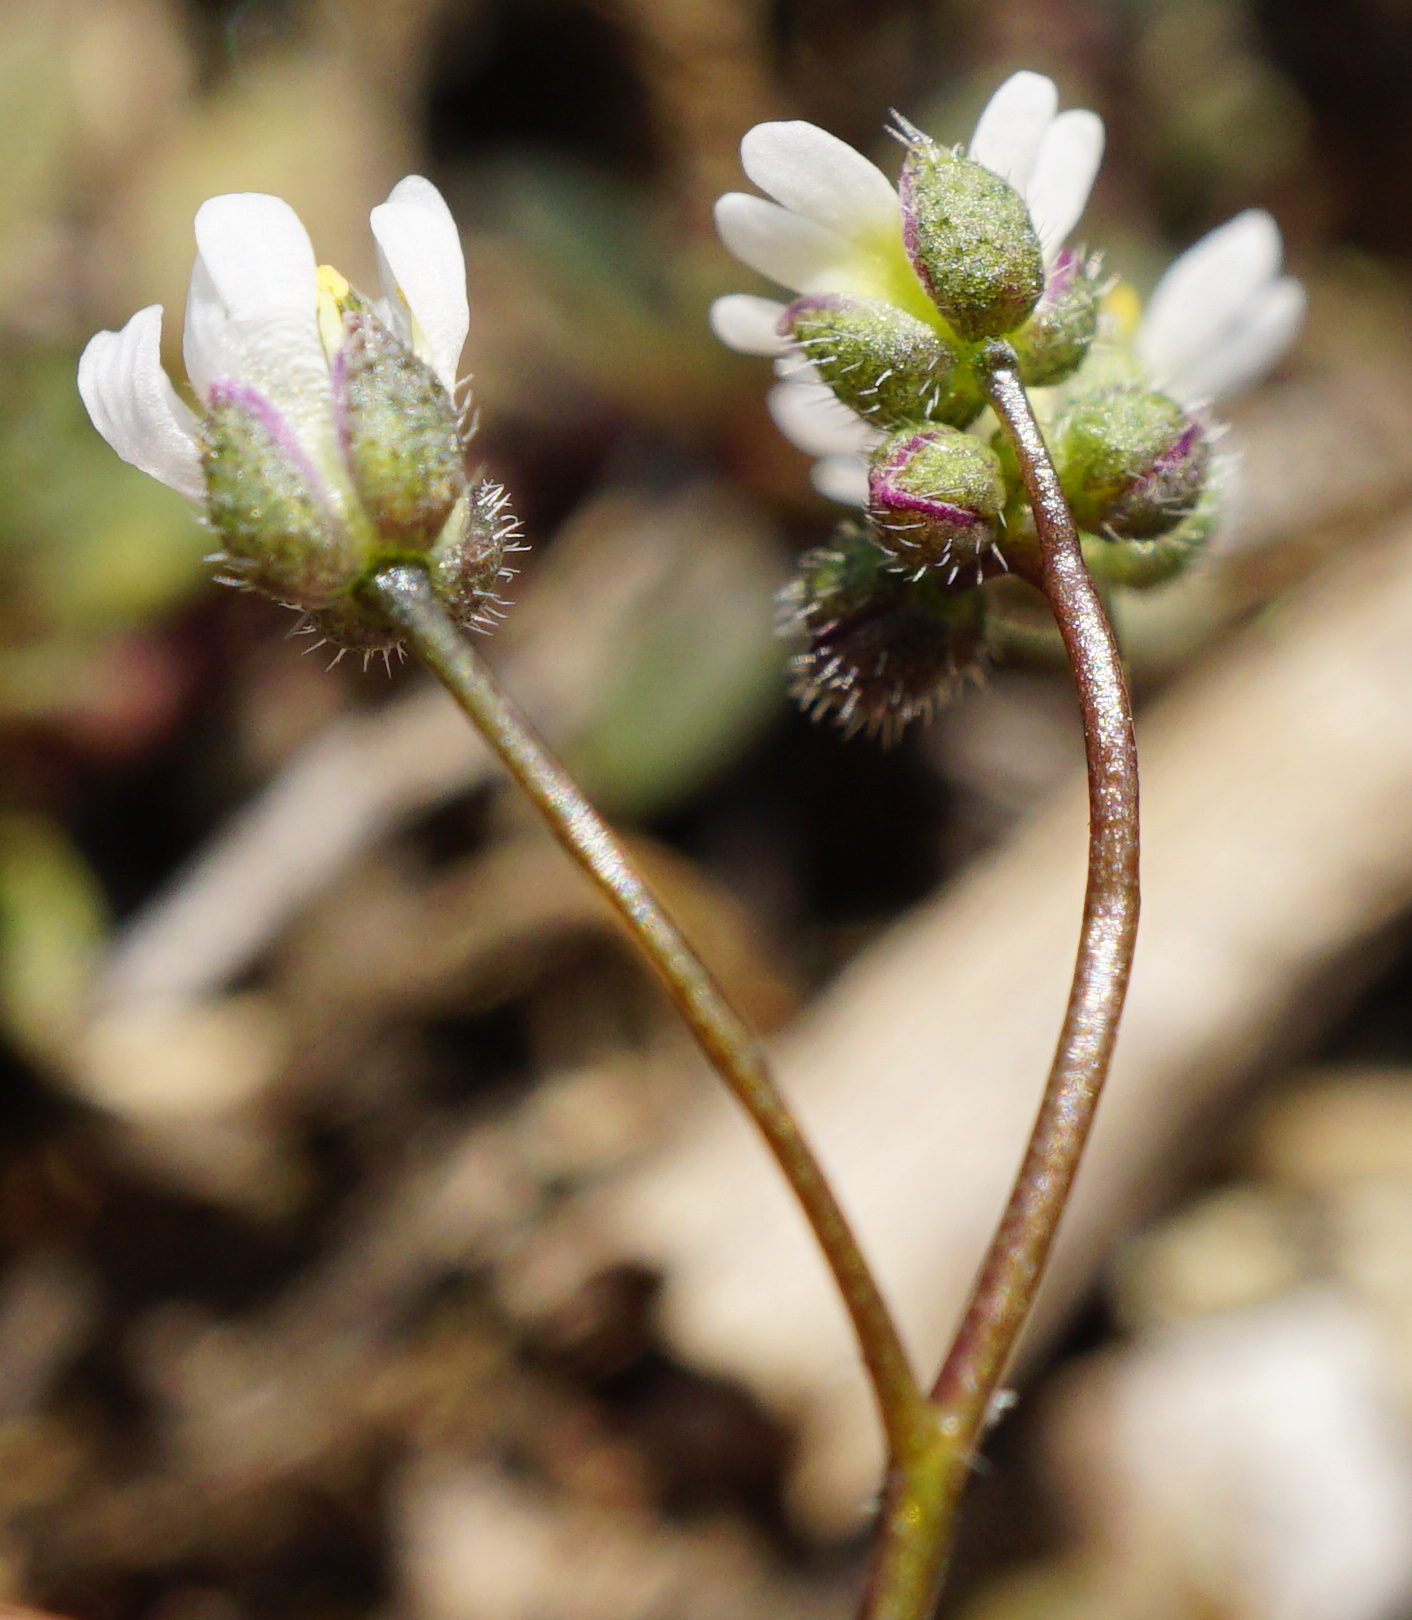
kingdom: Plantae
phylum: Tracheophyta
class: Magnoliopsida
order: Brassicales
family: Brassicaceae
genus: Draba
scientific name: Draba verna
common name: Spring draba
